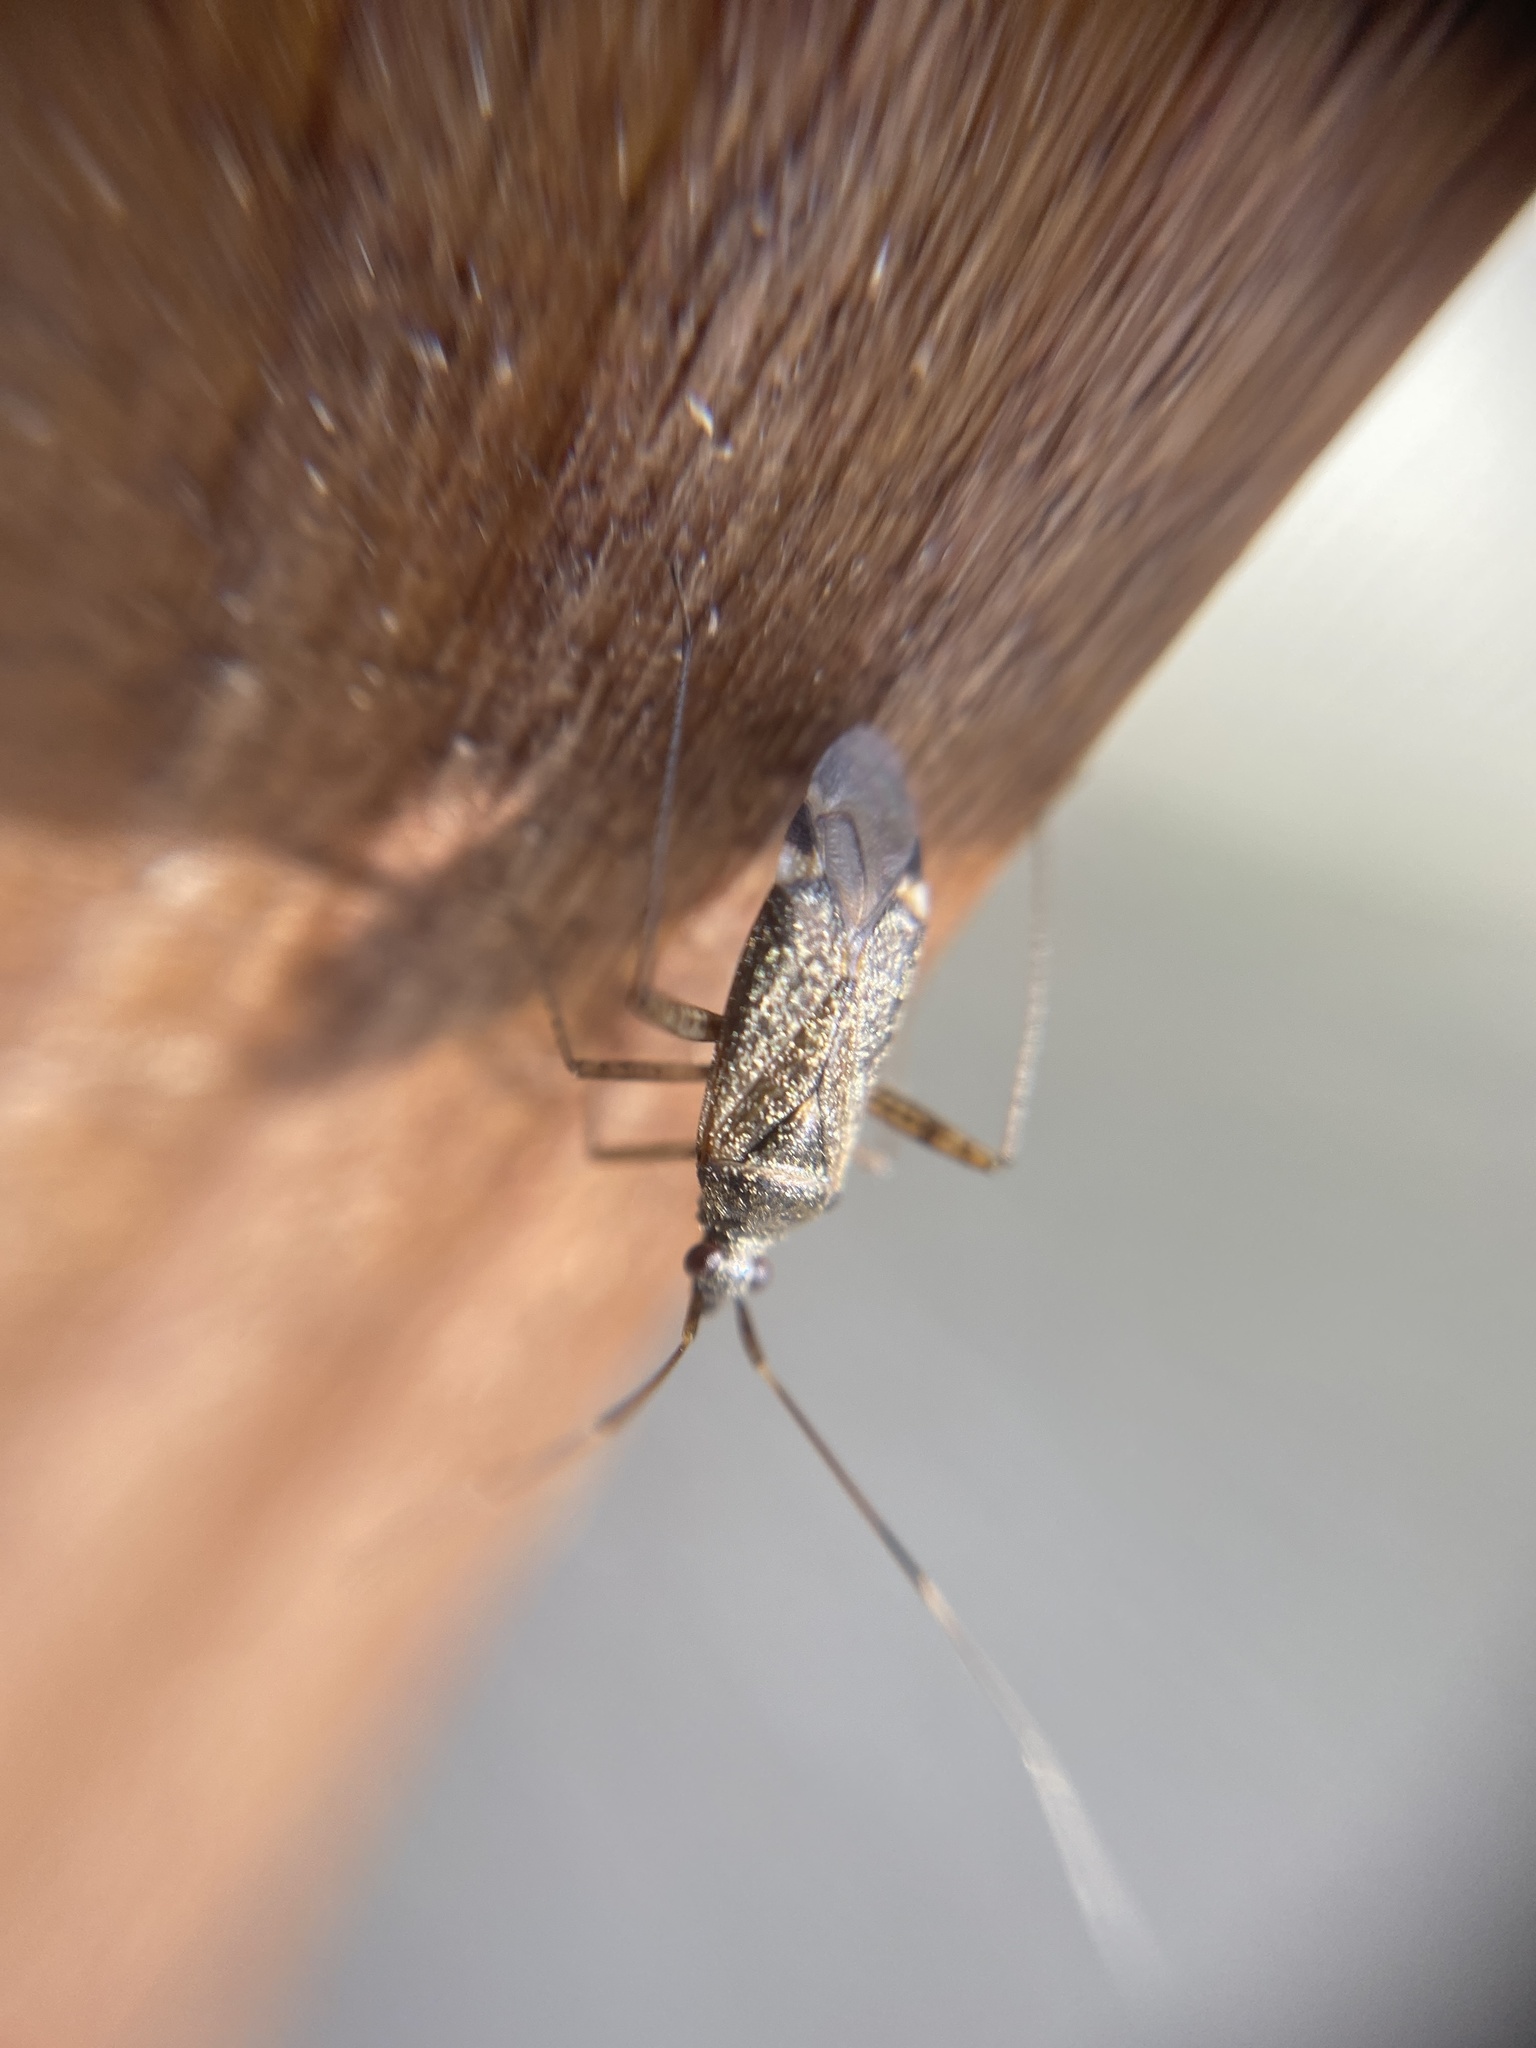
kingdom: Animalia
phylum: Arthropoda
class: Insecta
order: Hemiptera
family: Miridae
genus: Closterotomus
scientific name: Closterotomus fulvomaculatus
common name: Spotted plant bug
